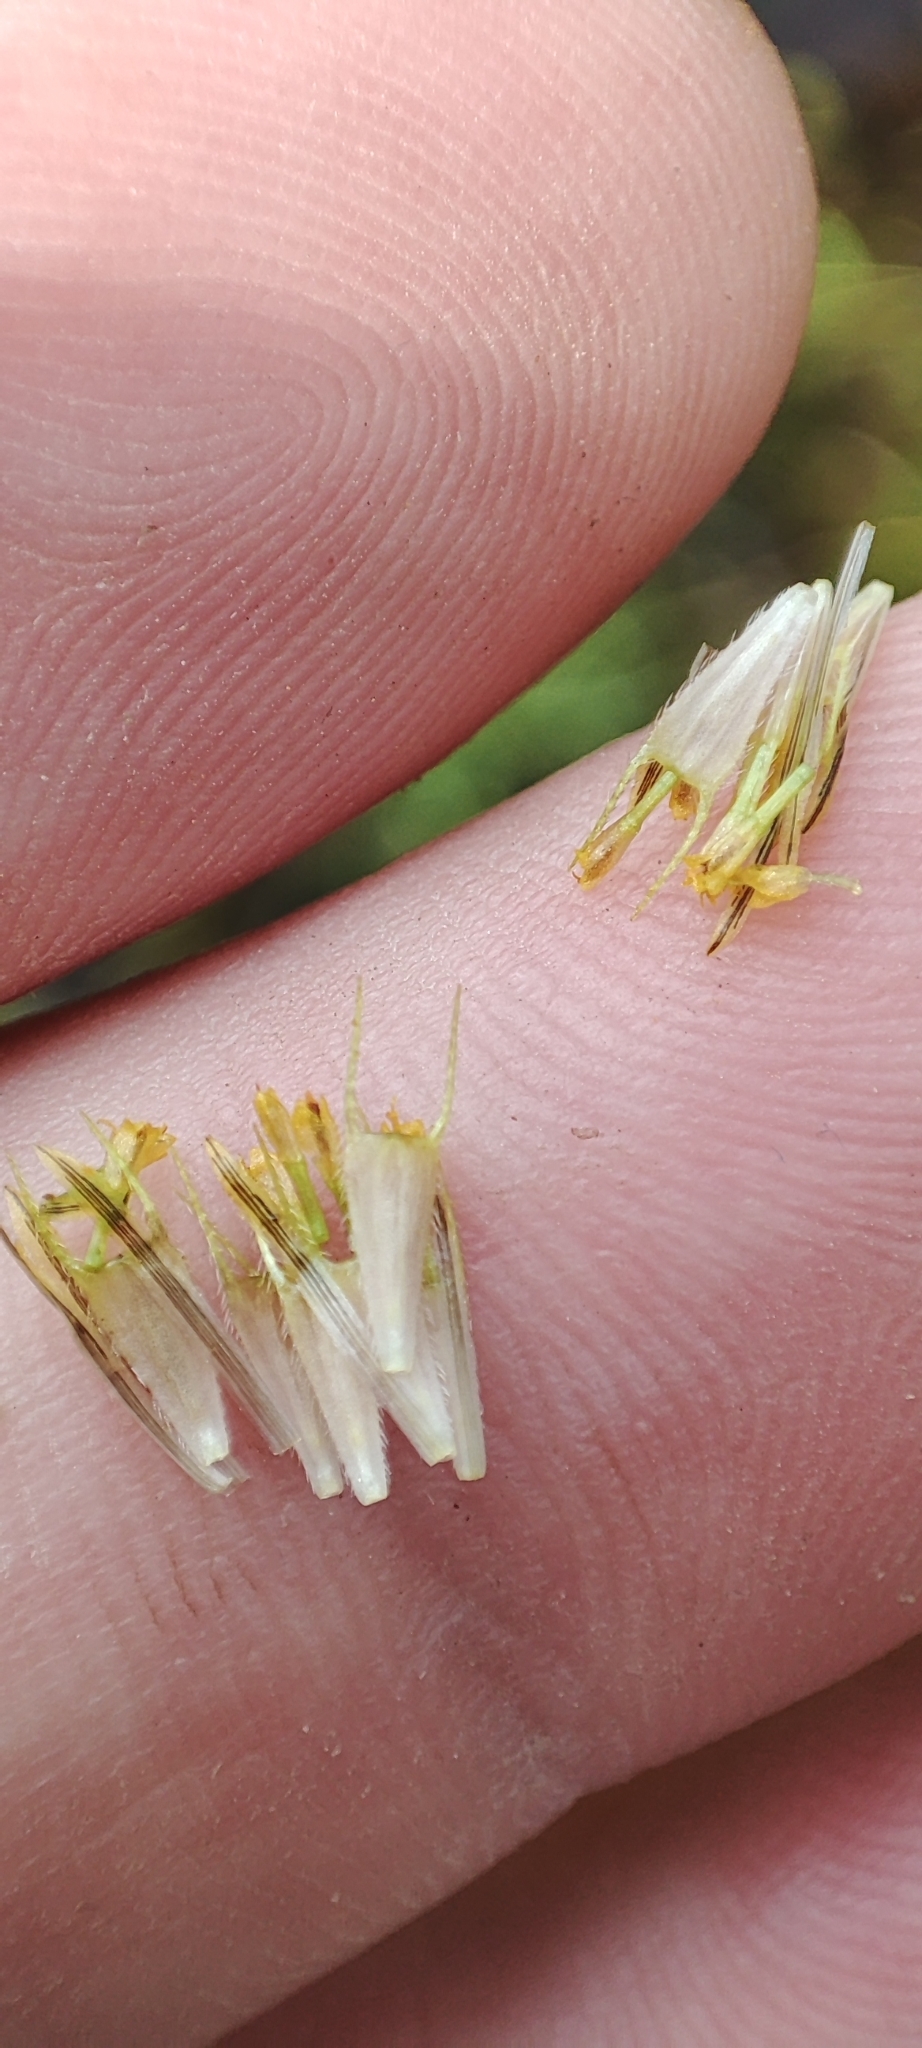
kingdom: Plantae
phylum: Tracheophyta
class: Magnoliopsida
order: Asterales
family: Asteraceae
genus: Bidens
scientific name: Bidens radiata
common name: Radiating bur-marigold
